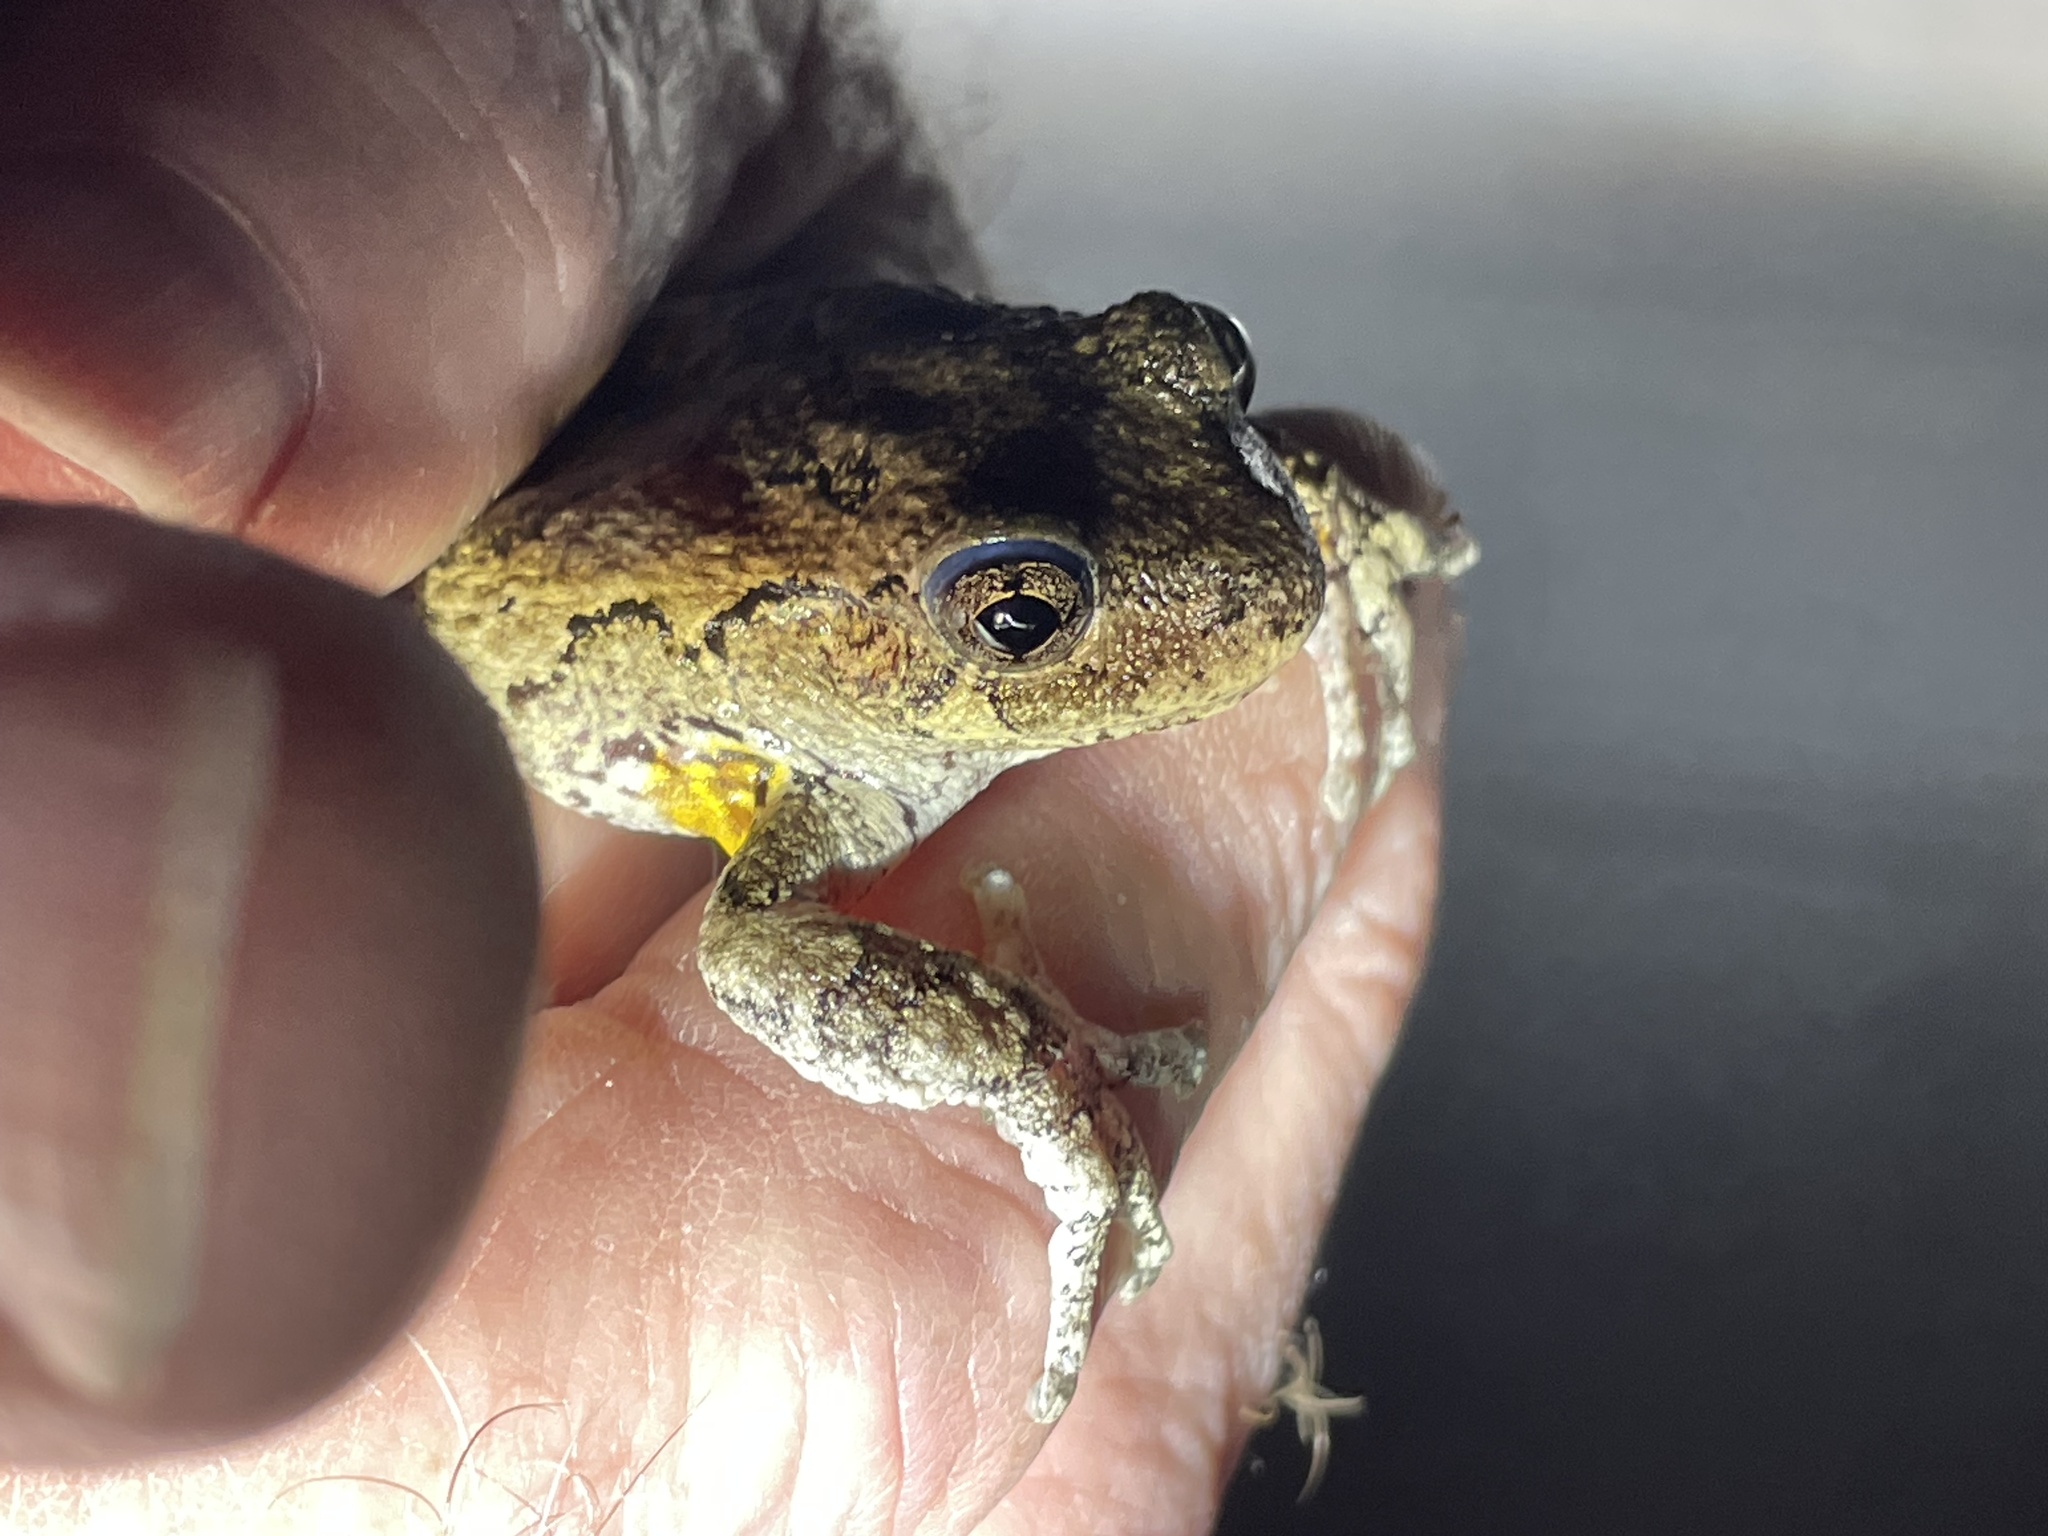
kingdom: Animalia
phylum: Chordata
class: Amphibia
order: Anura
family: Hylidae
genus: Dryophytes
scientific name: Dryophytes versicolor
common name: Gray treefrog
